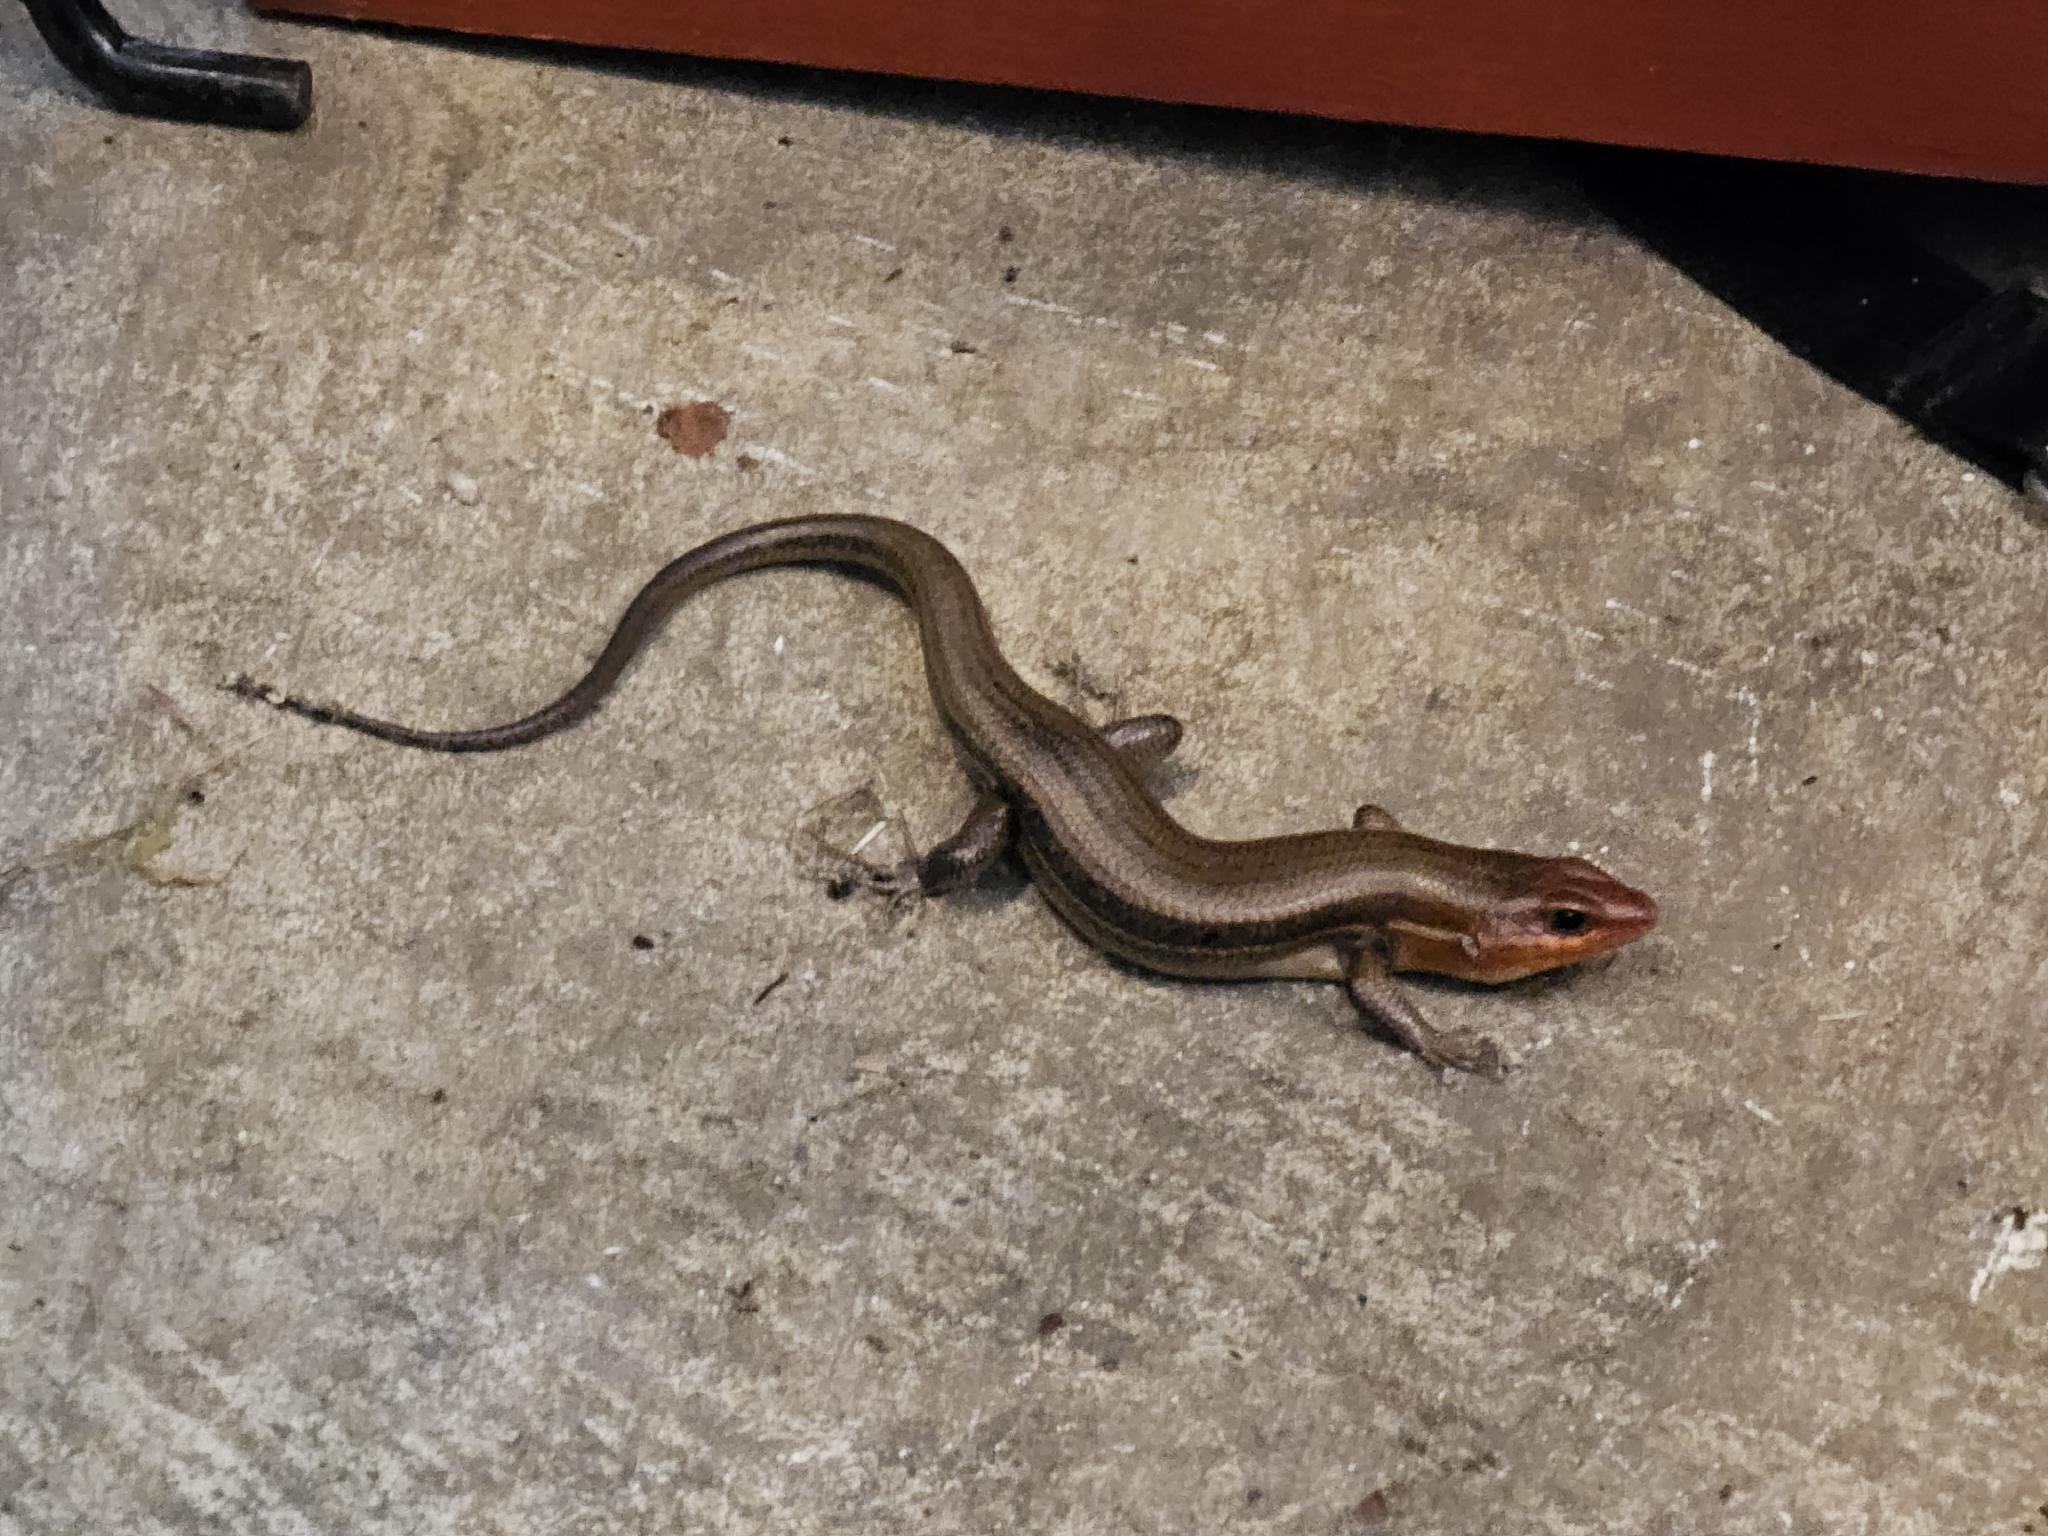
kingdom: Animalia
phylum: Chordata
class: Squamata
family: Scincidae
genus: Plestiodon
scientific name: Plestiodon laticeps
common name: Broadhead skink
